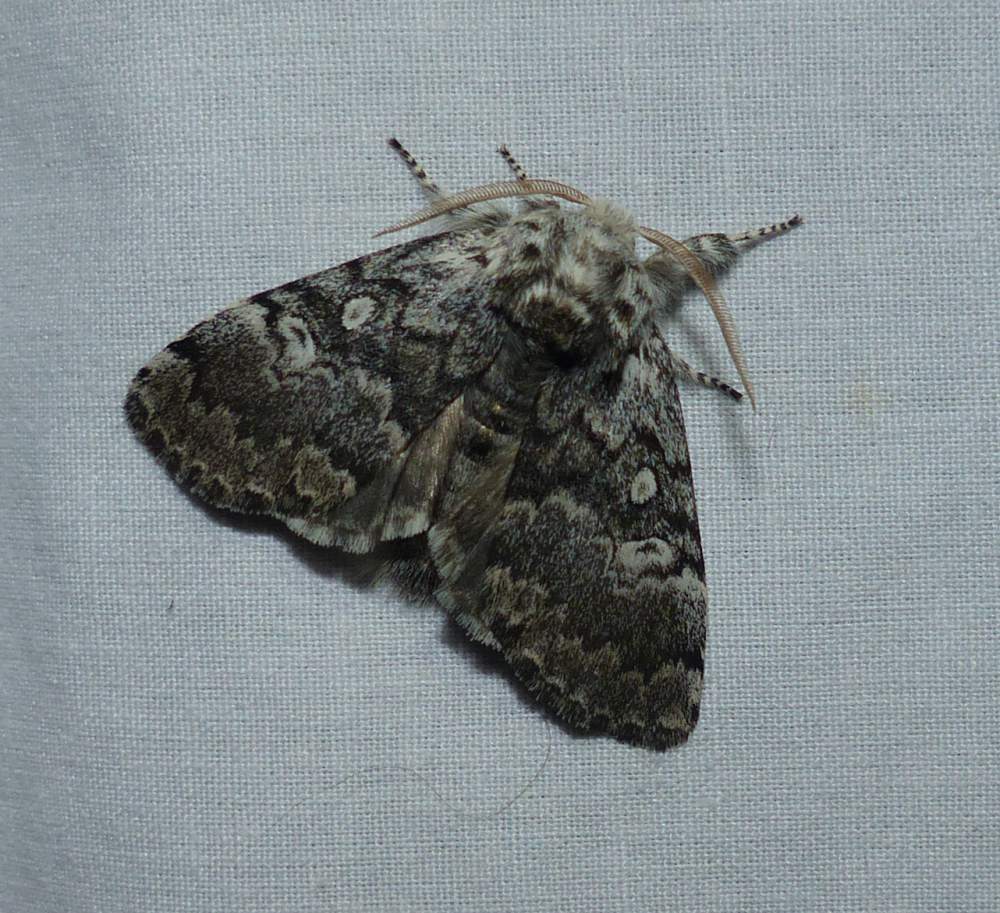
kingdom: Animalia
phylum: Arthropoda
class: Insecta
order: Lepidoptera
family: Noctuidae
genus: Colocasia
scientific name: Colocasia propinquilinea
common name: Close-banded demas
